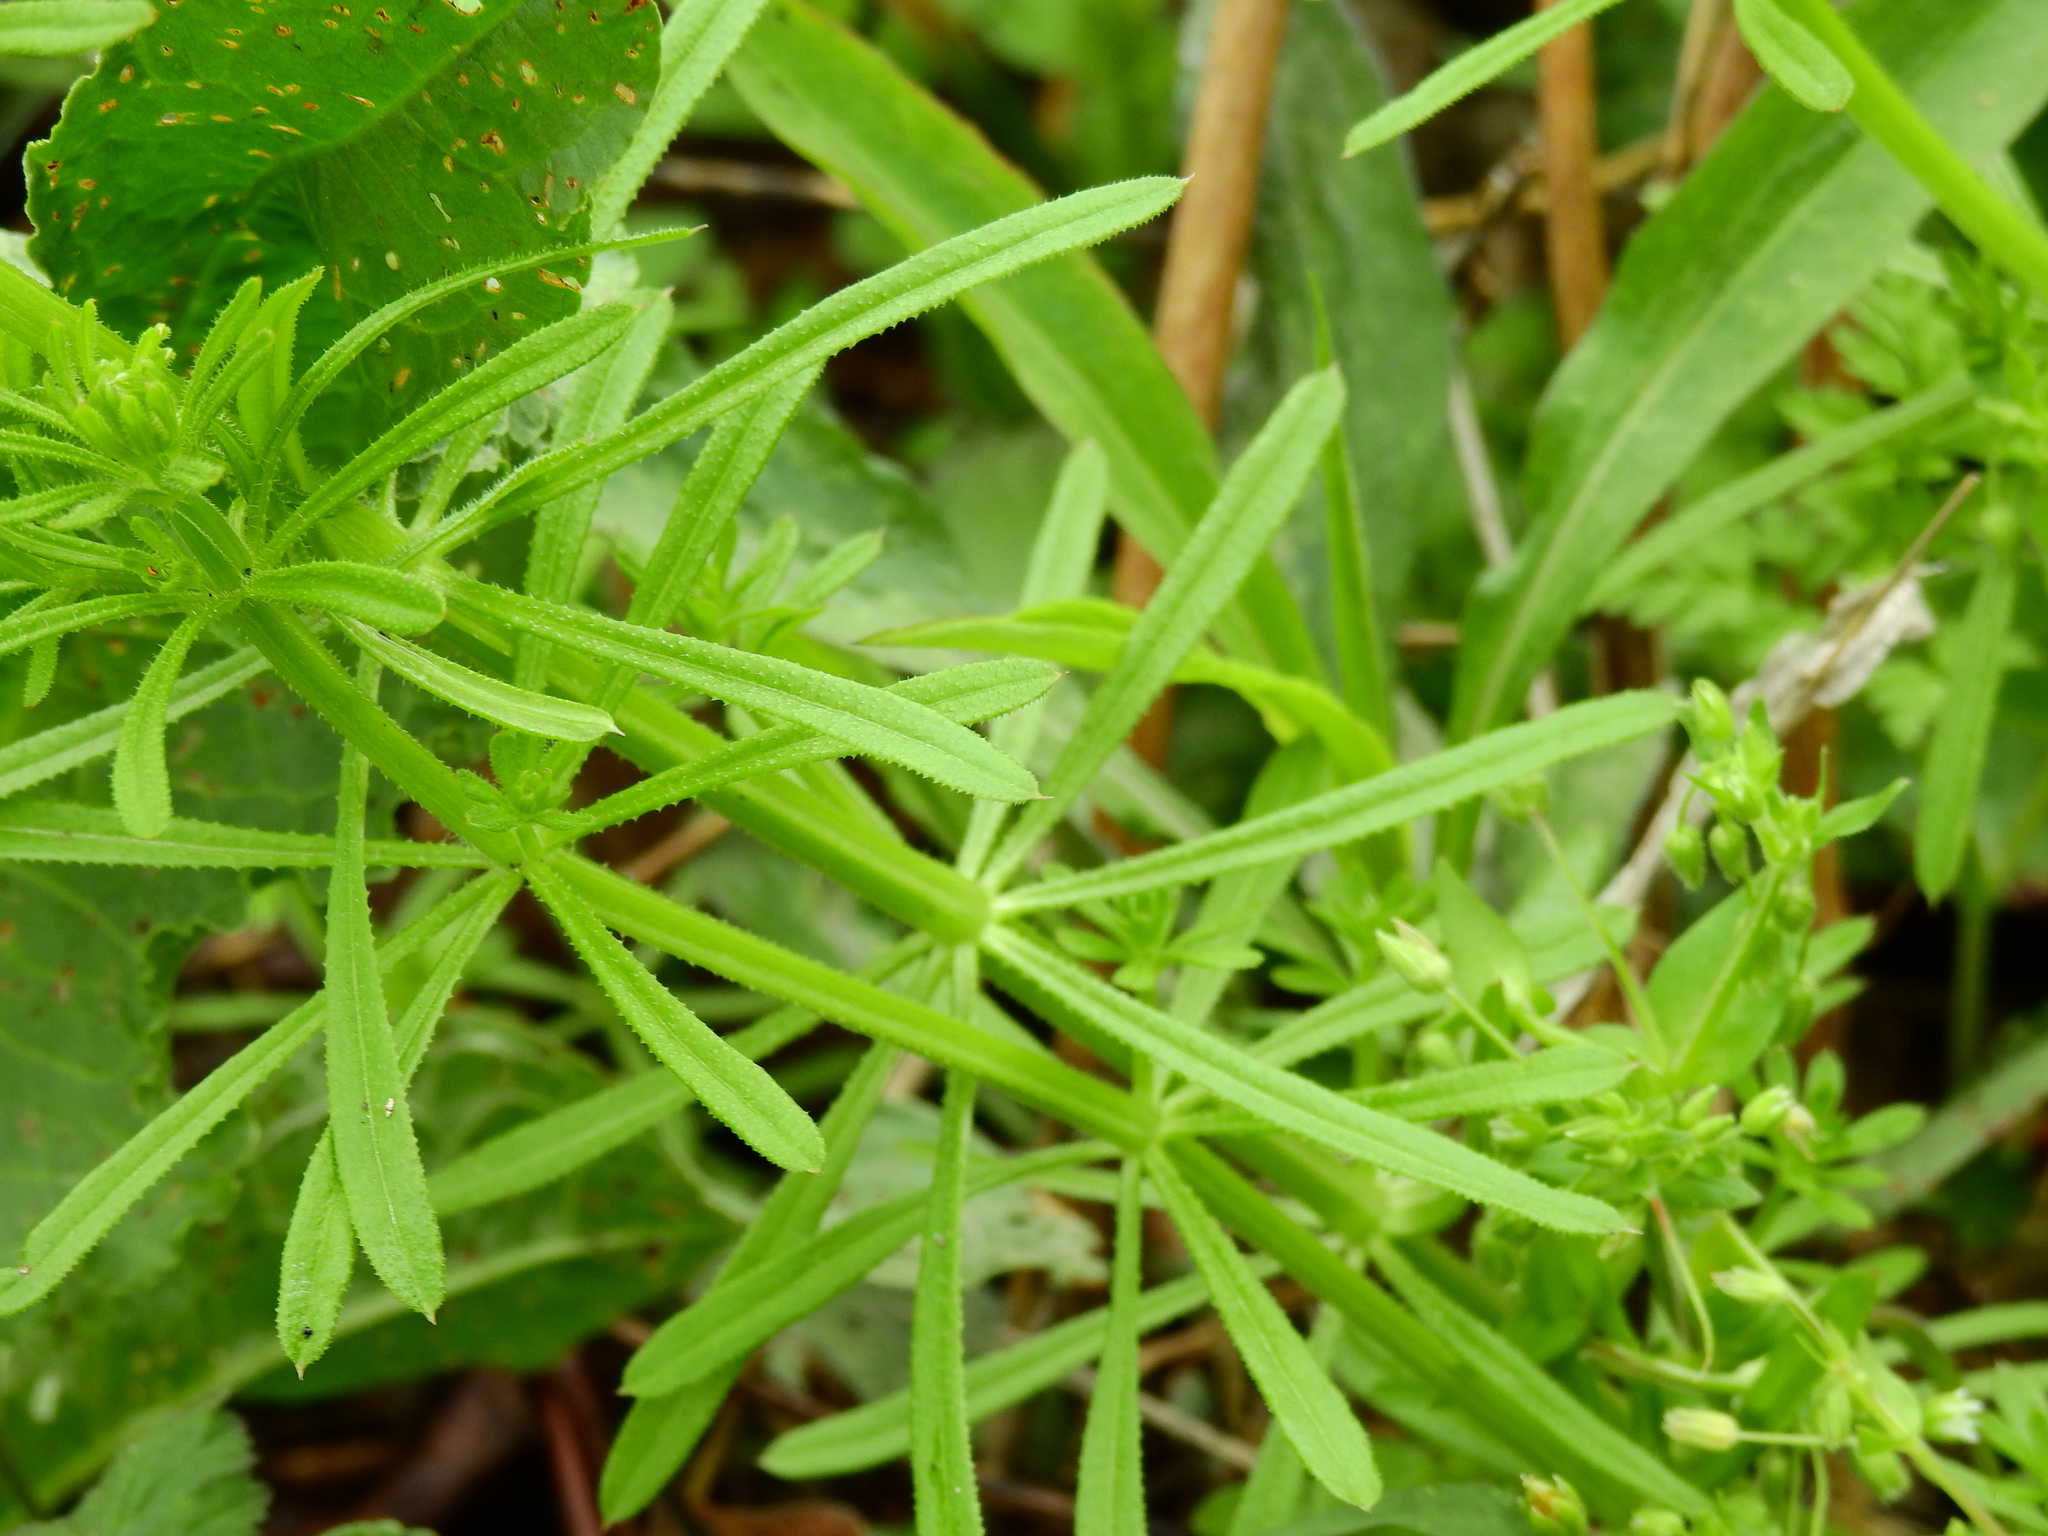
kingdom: Plantae
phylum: Tracheophyta
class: Magnoliopsida
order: Gentianales
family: Rubiaceae
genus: Galium
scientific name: Galium aparine
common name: Cleavers
